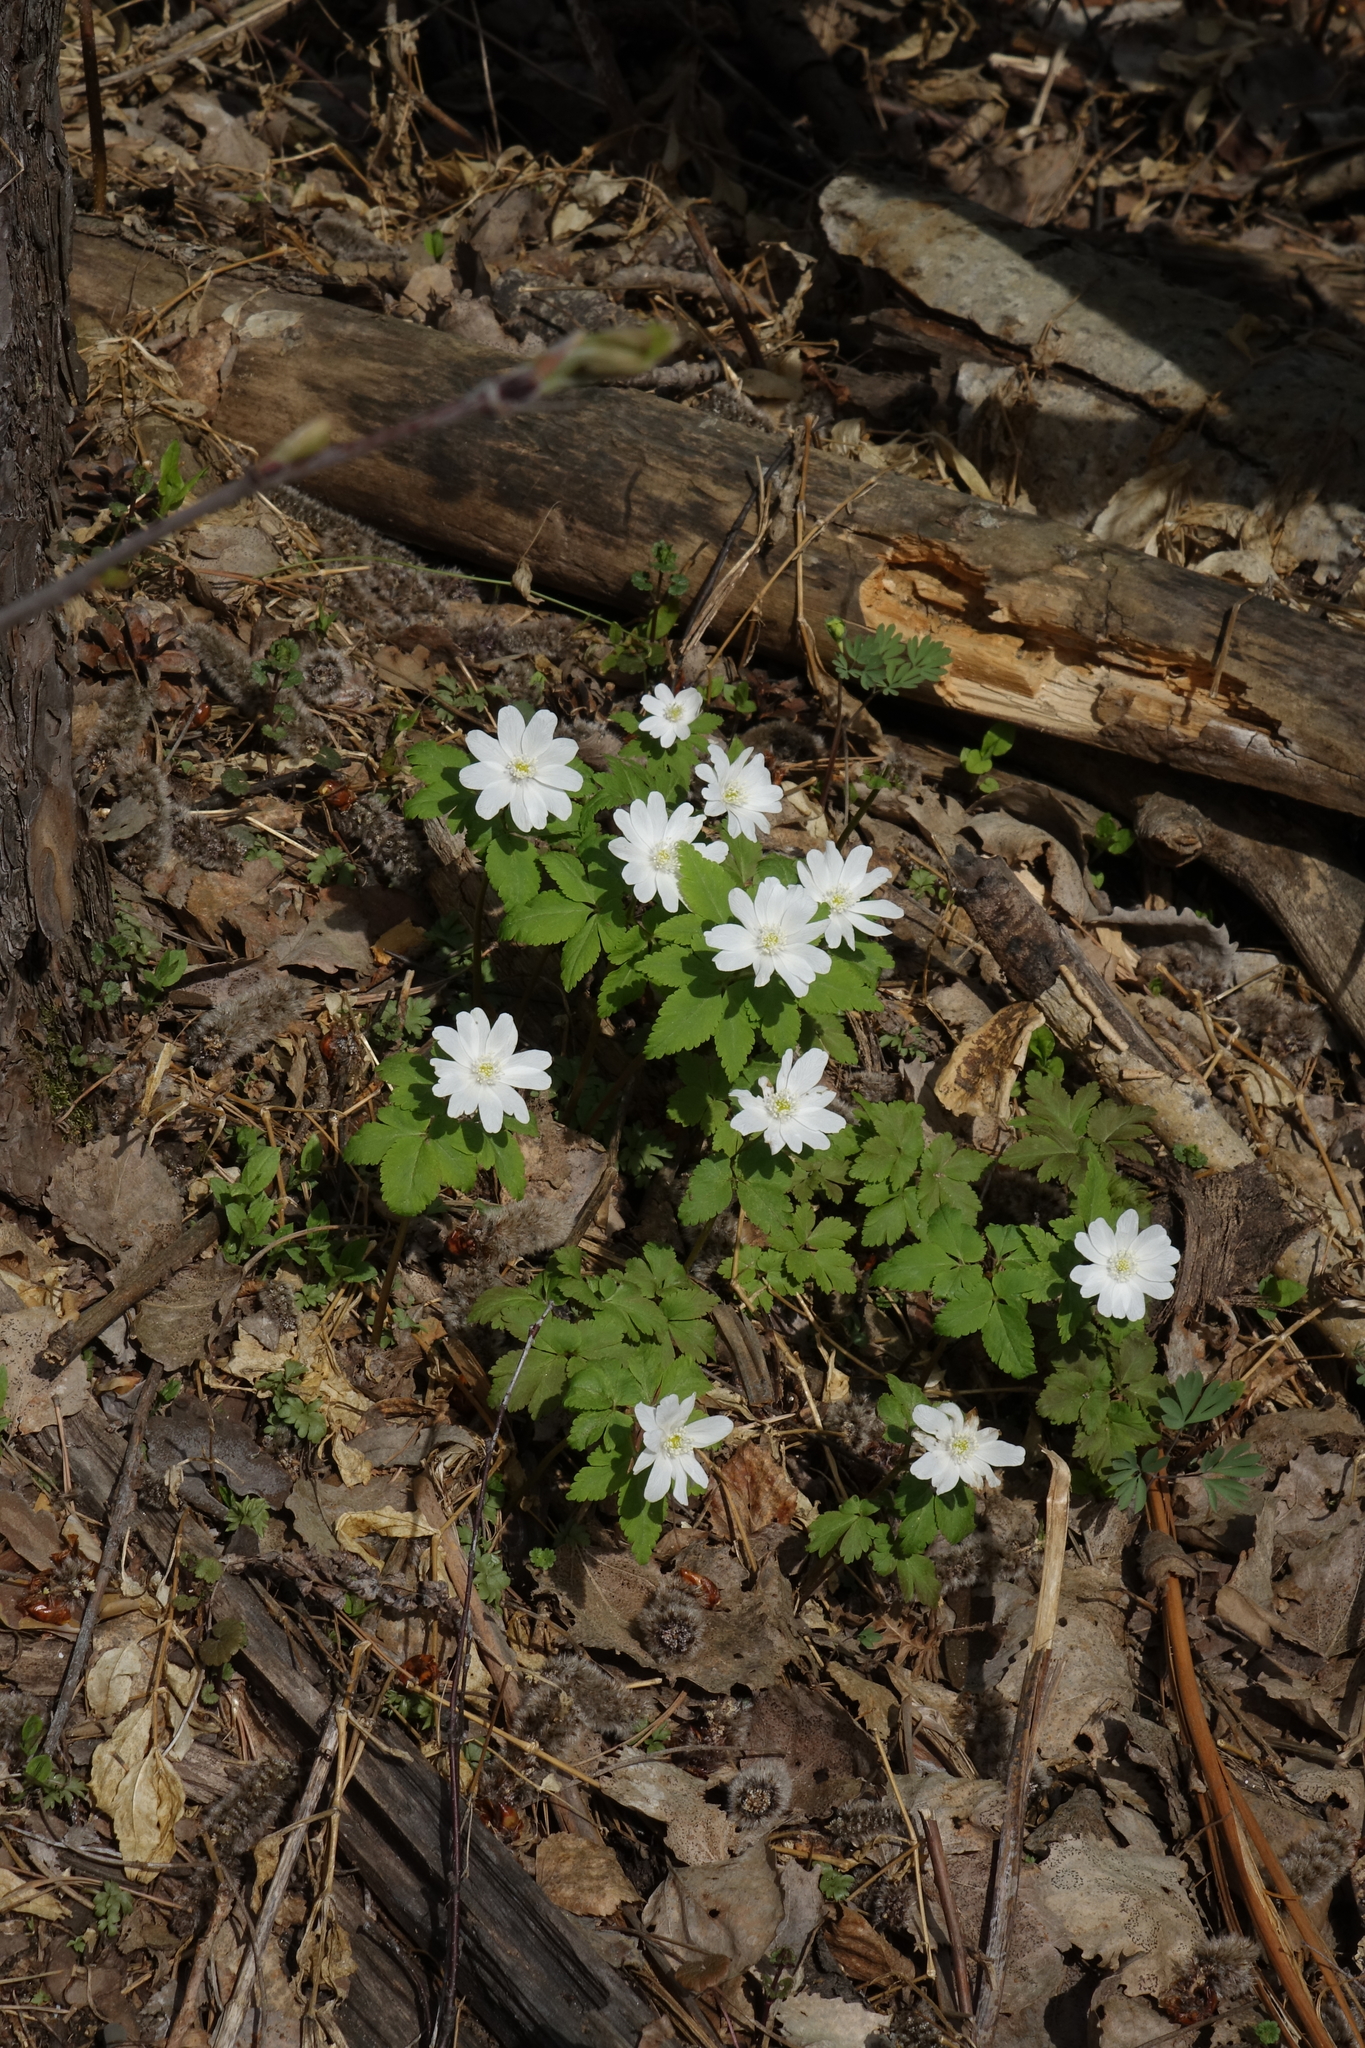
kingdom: Plantae
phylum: Tracheophyta
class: Magnoliopsida
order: Ranunculales
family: Ranunculaceae
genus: Anemone
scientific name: Anemone altaica
